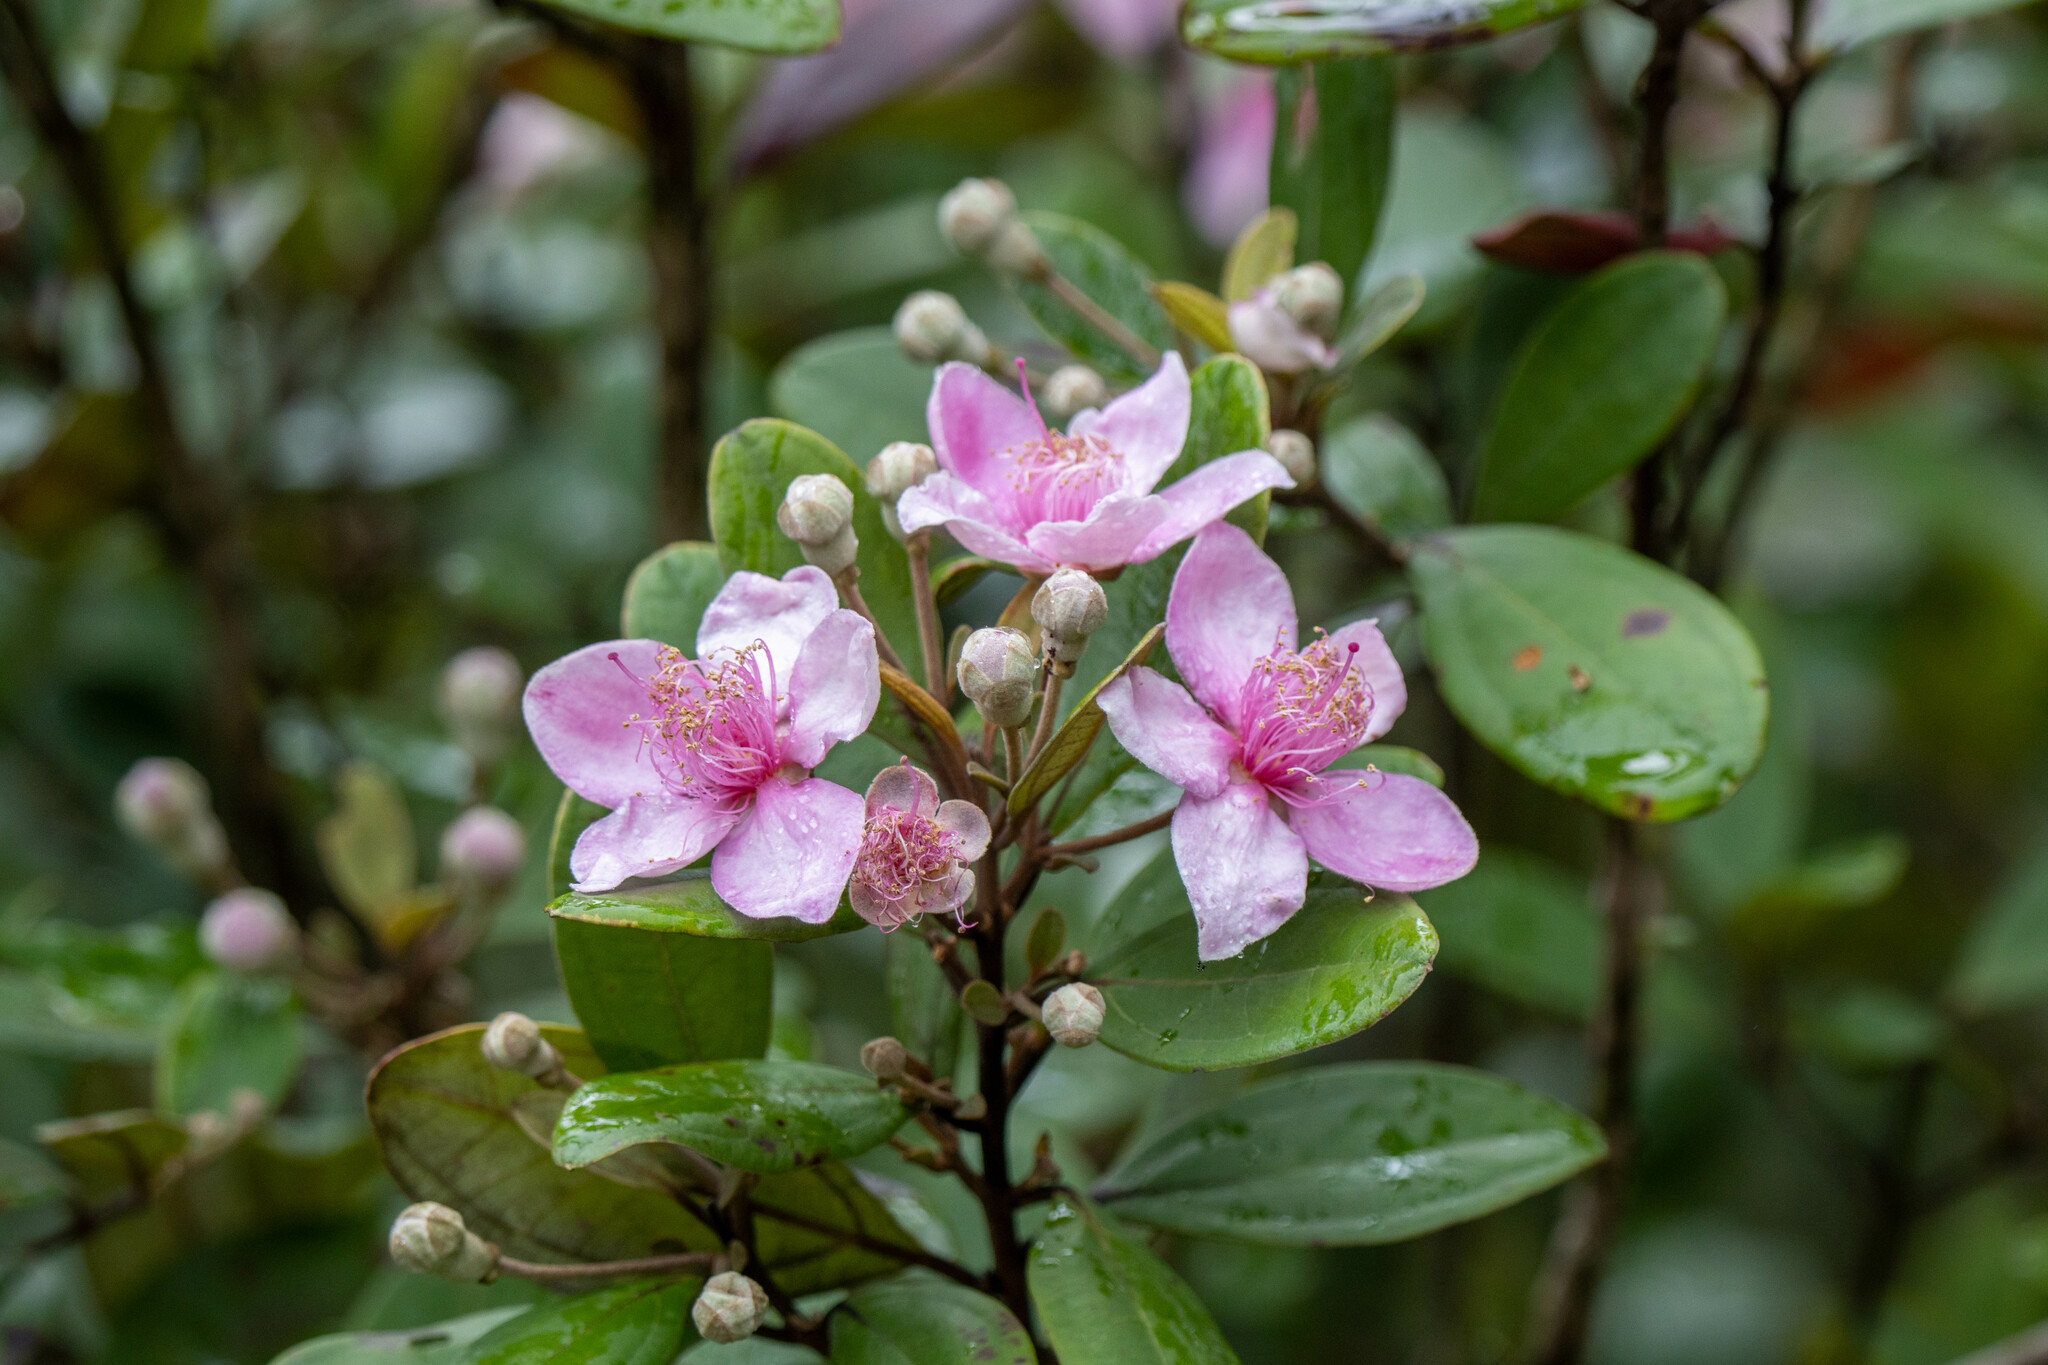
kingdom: Plantae
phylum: Tracheophyta
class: Magnoliopsida
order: Myrtales
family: Myrtaceae
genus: Rhodomyrtus
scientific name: Rhodomyrtus tomentosa
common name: Rose myrtle
